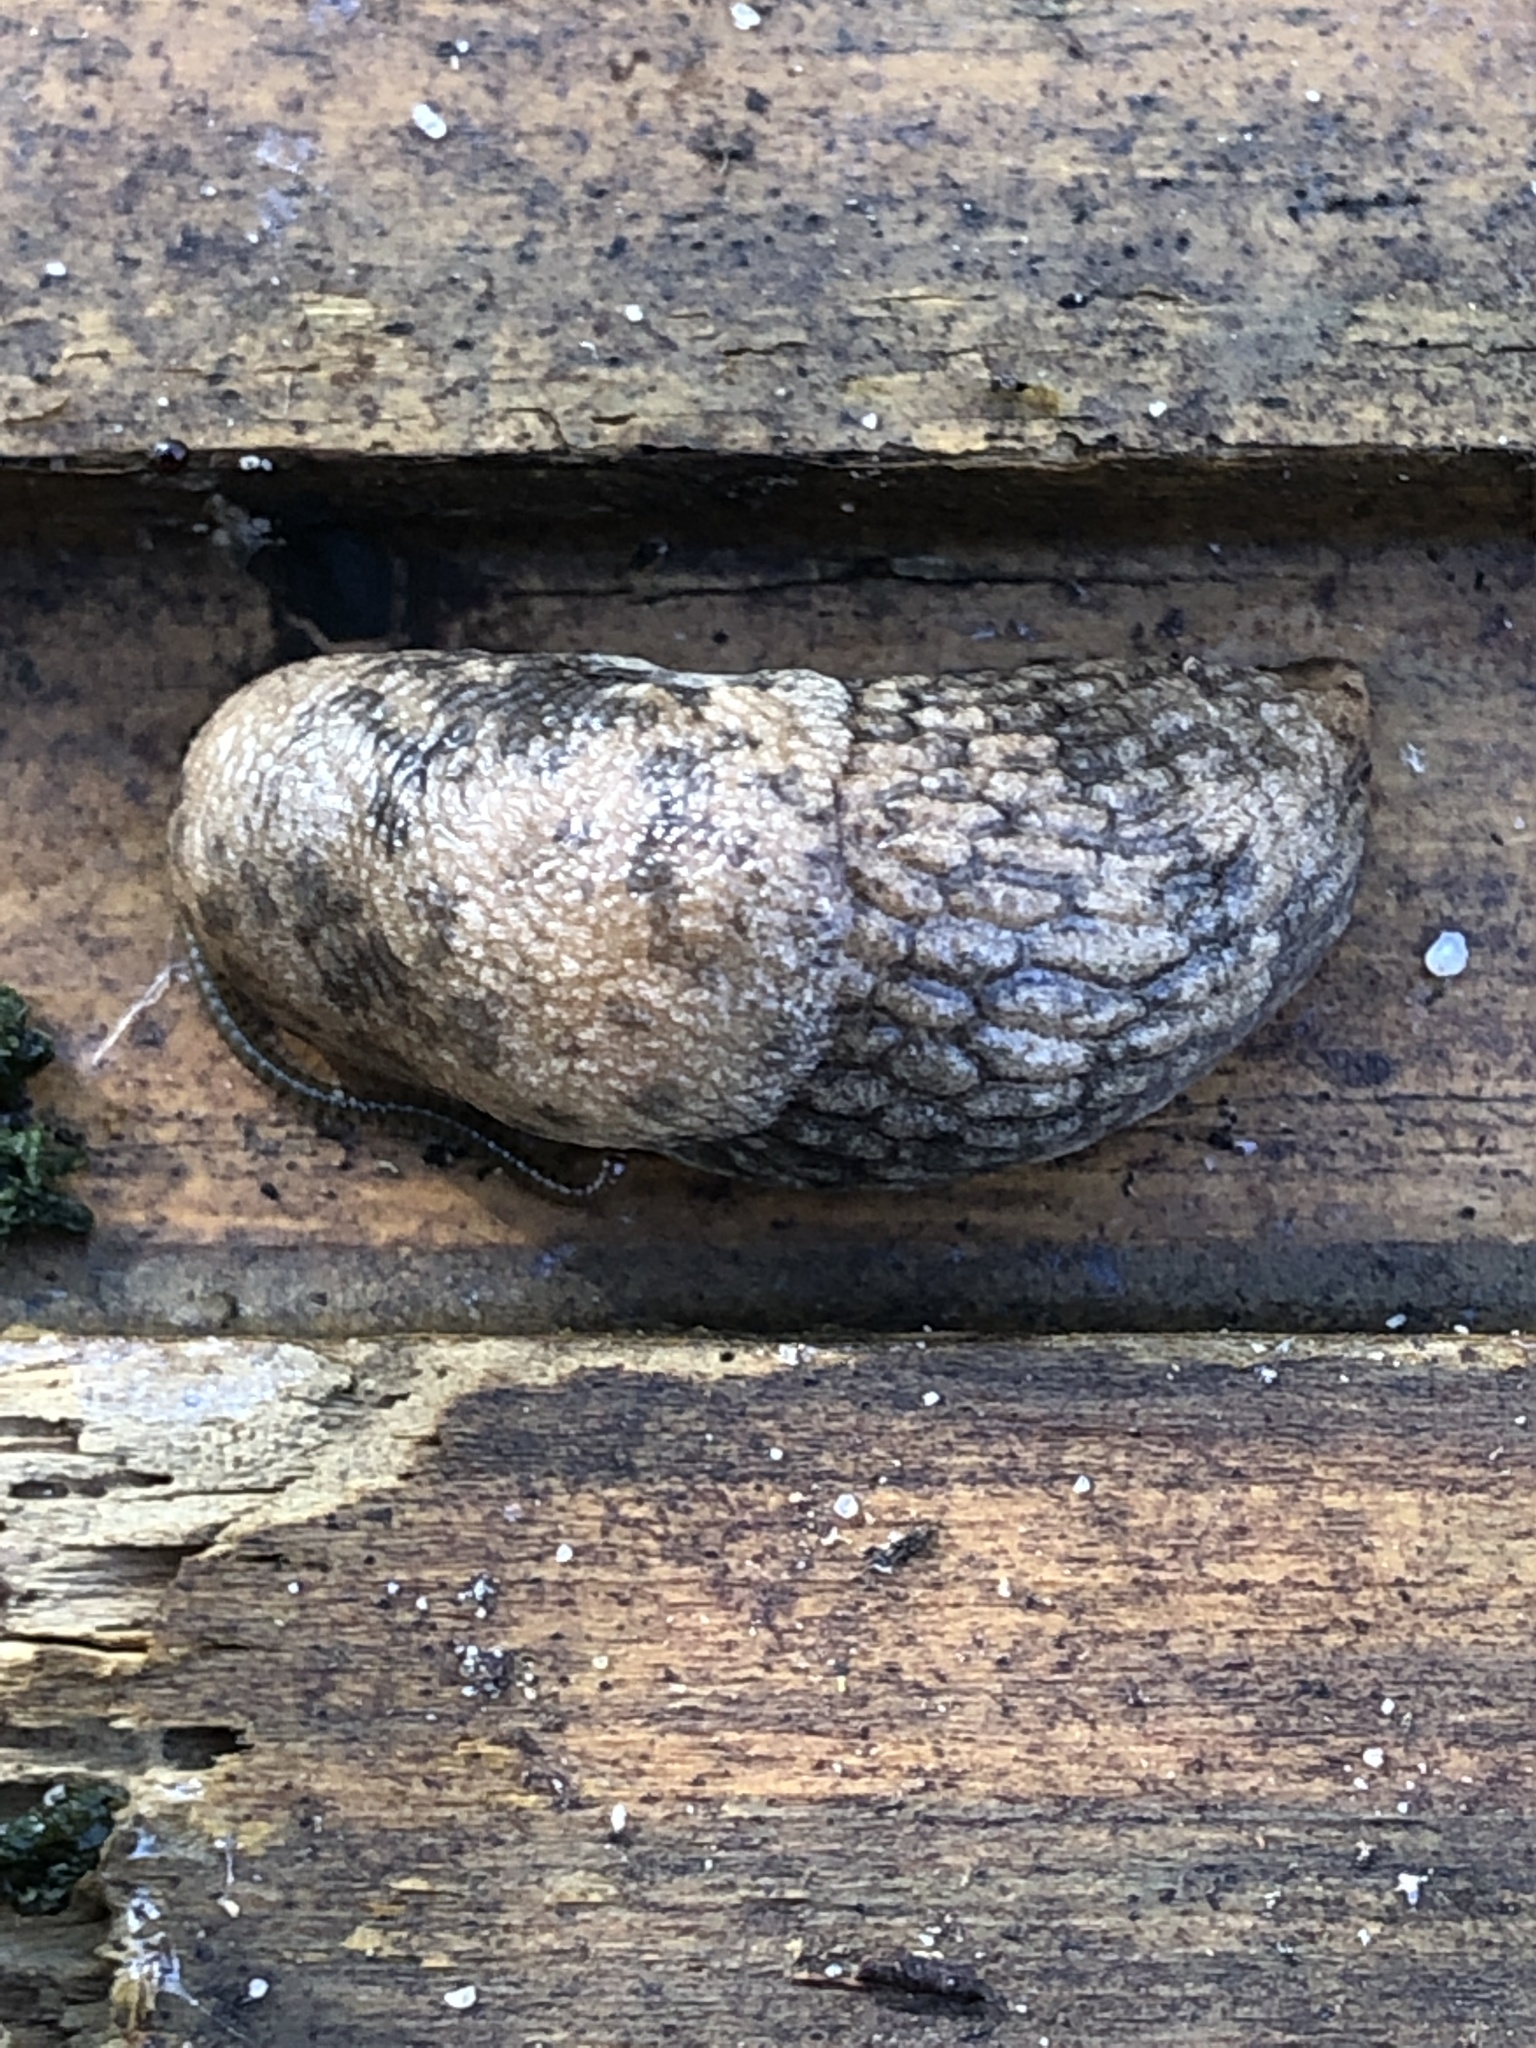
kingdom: Animalia
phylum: Mollusca
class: Gastropoda
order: Stylommatophora
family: Agriolimacidae
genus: Deroceras
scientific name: Deroceras reticulatum
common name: Gray field slug
